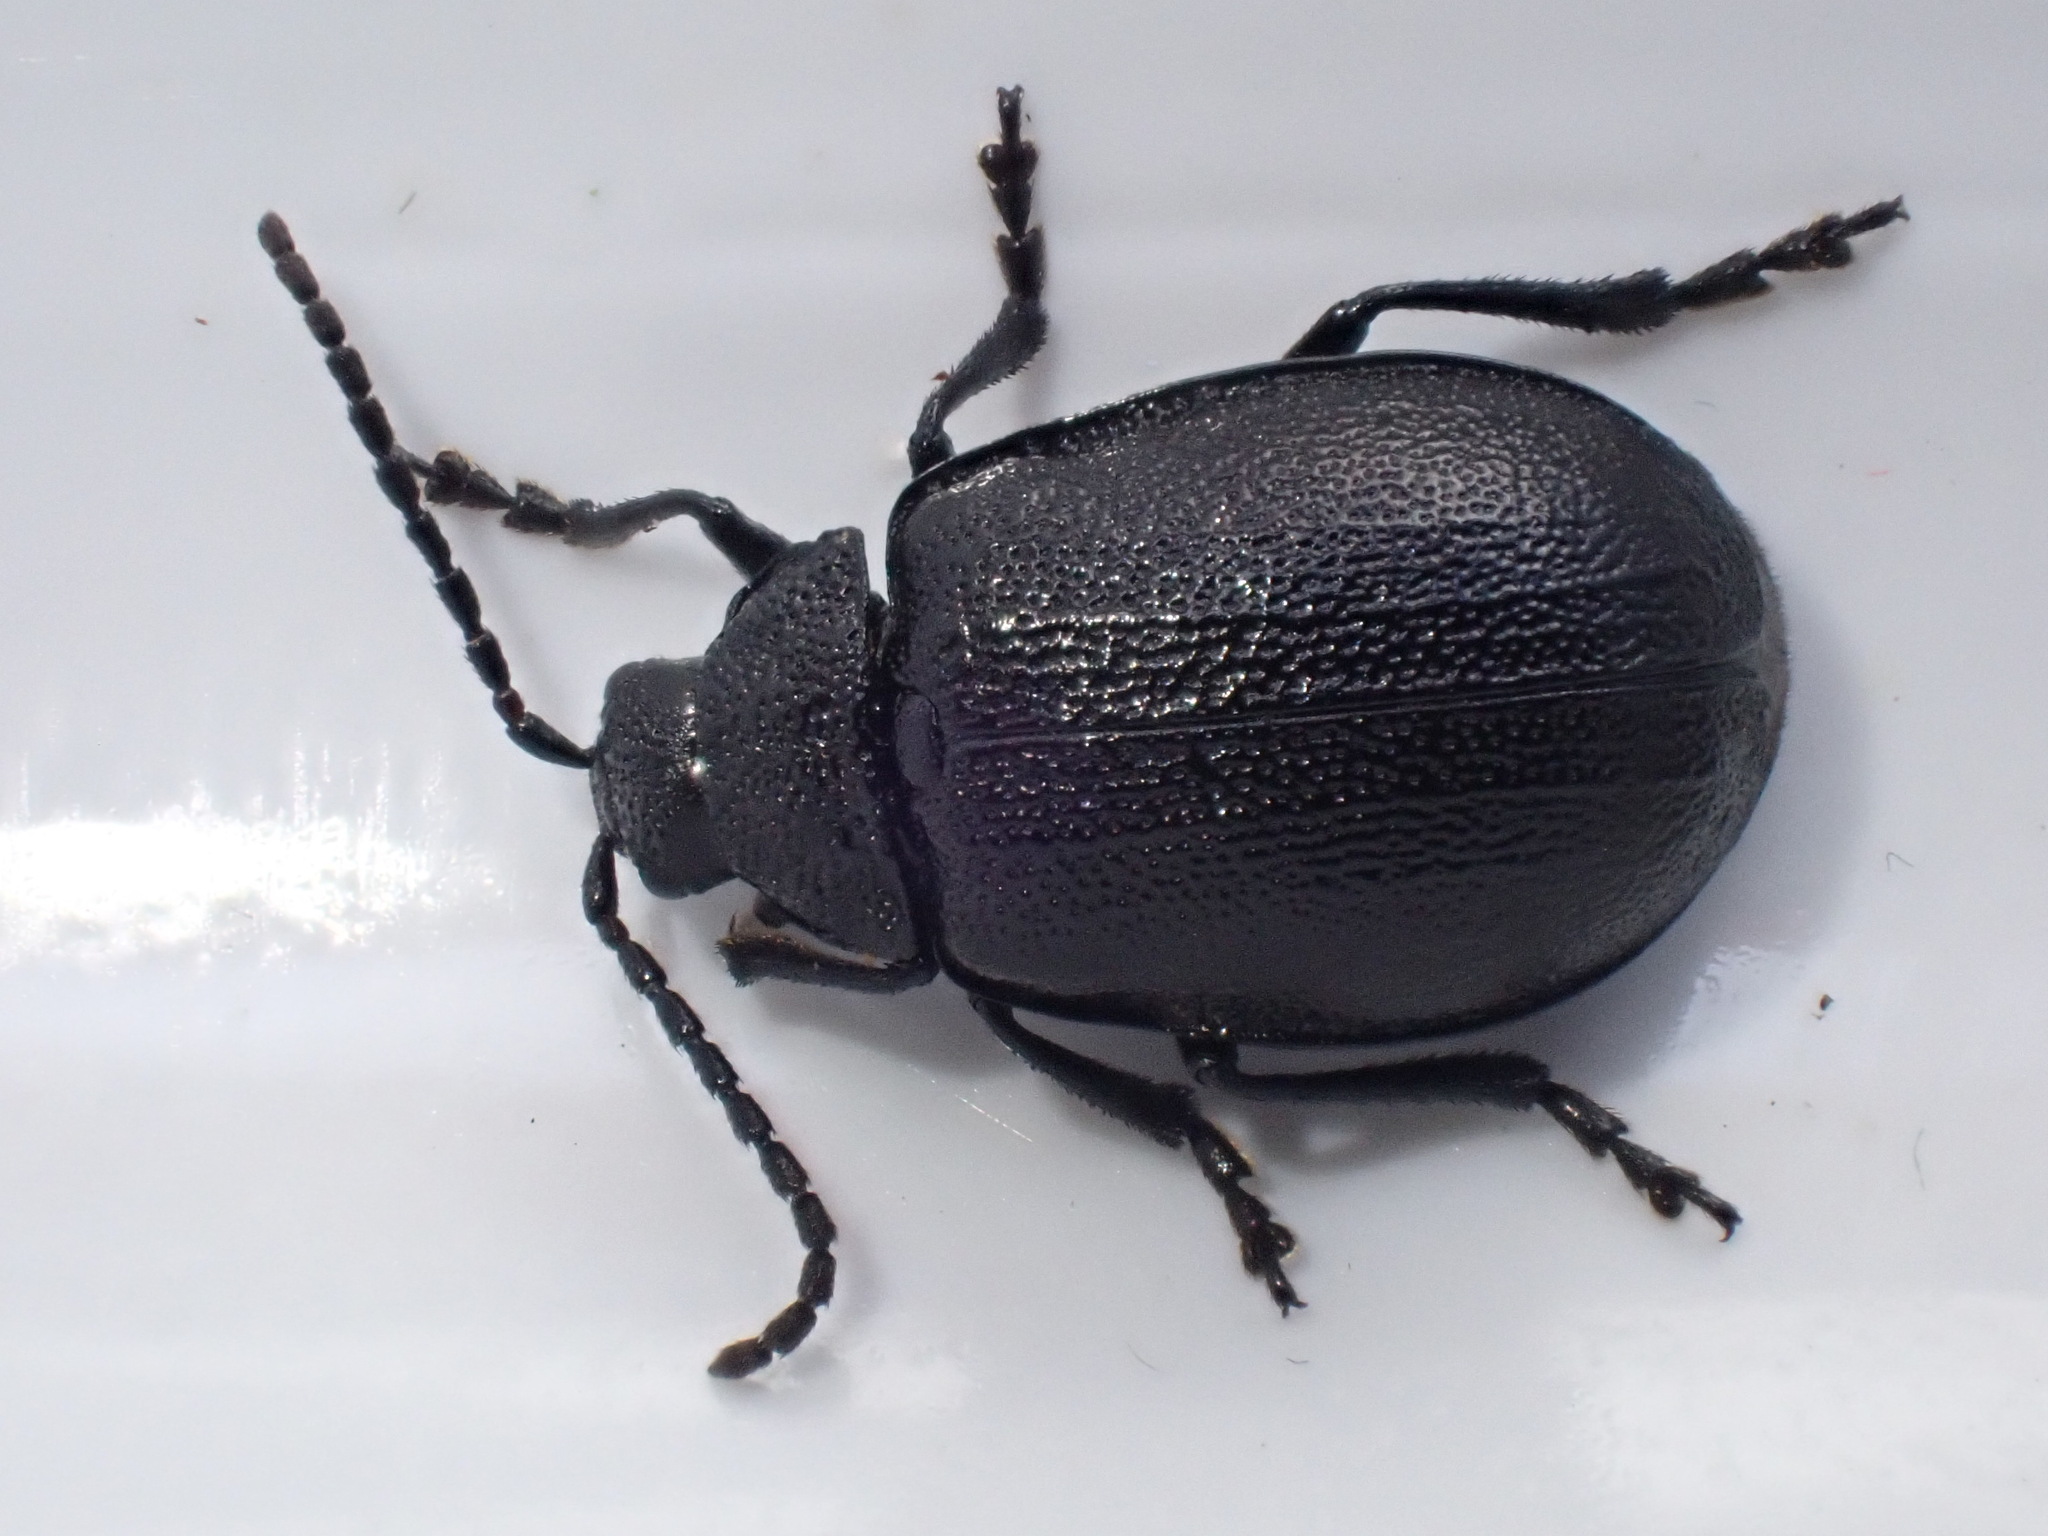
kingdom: Animalia
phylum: Arthropoda
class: Insecta
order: Coleoptera
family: Chrysomelidae
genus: Galeruca
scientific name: Galeruca tanaceti
